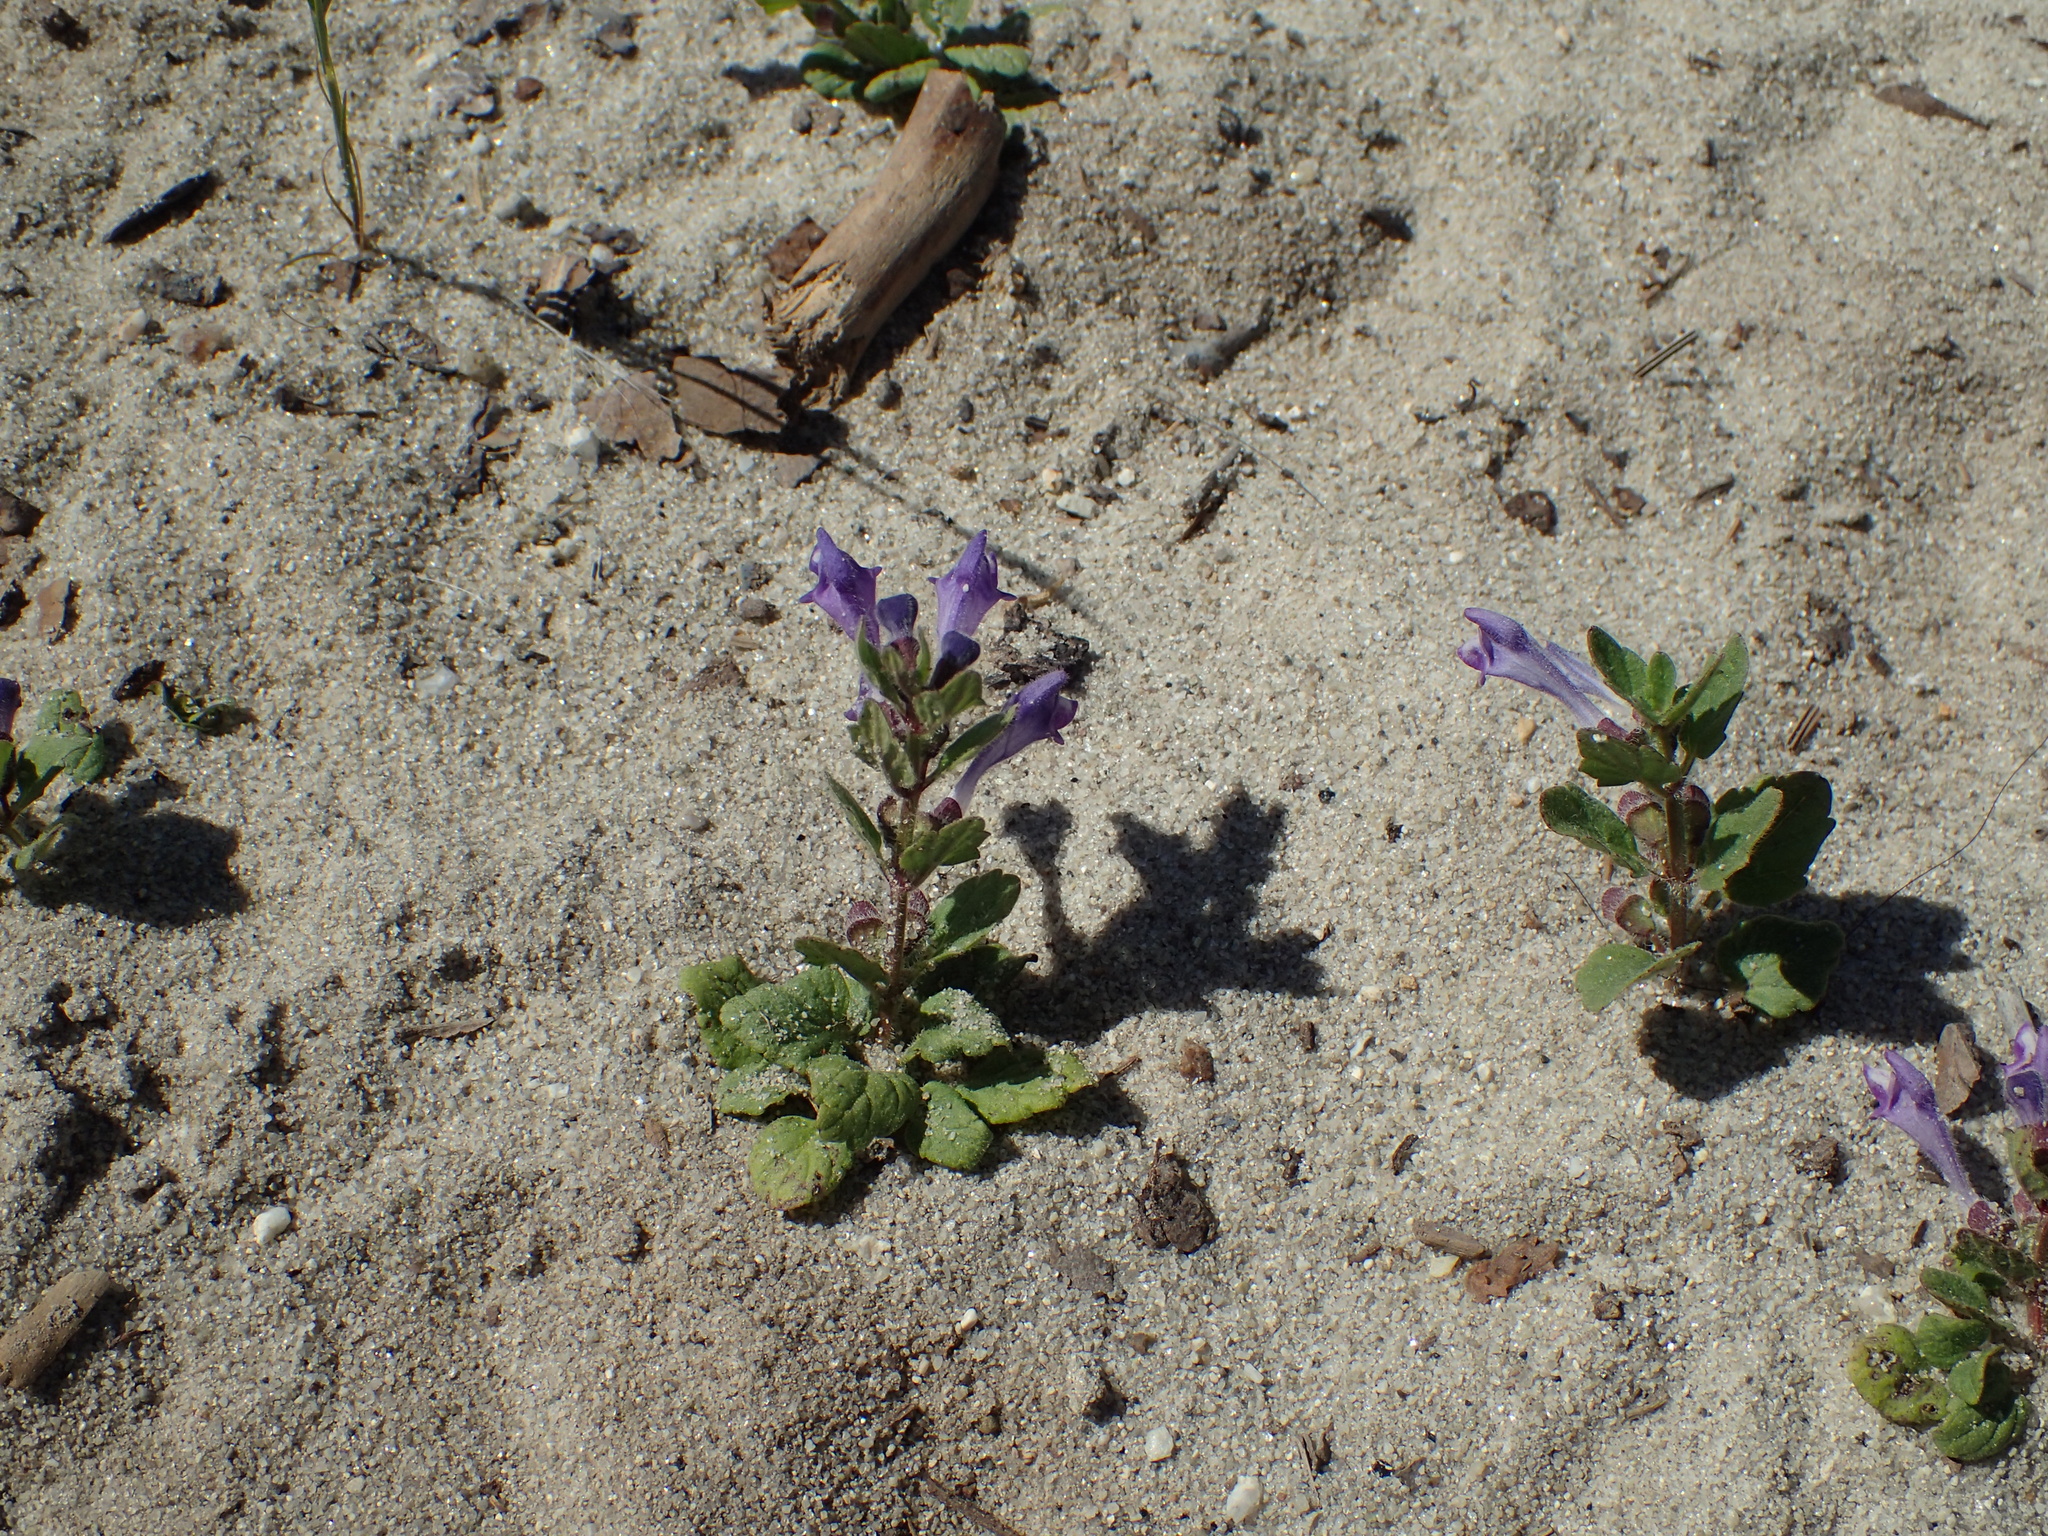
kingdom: Plantae
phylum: Tracheophyta
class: Magnoliopsida
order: Lamiales
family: Lamiaceae
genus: Scutellaria
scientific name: Scutellaria tuberosa
